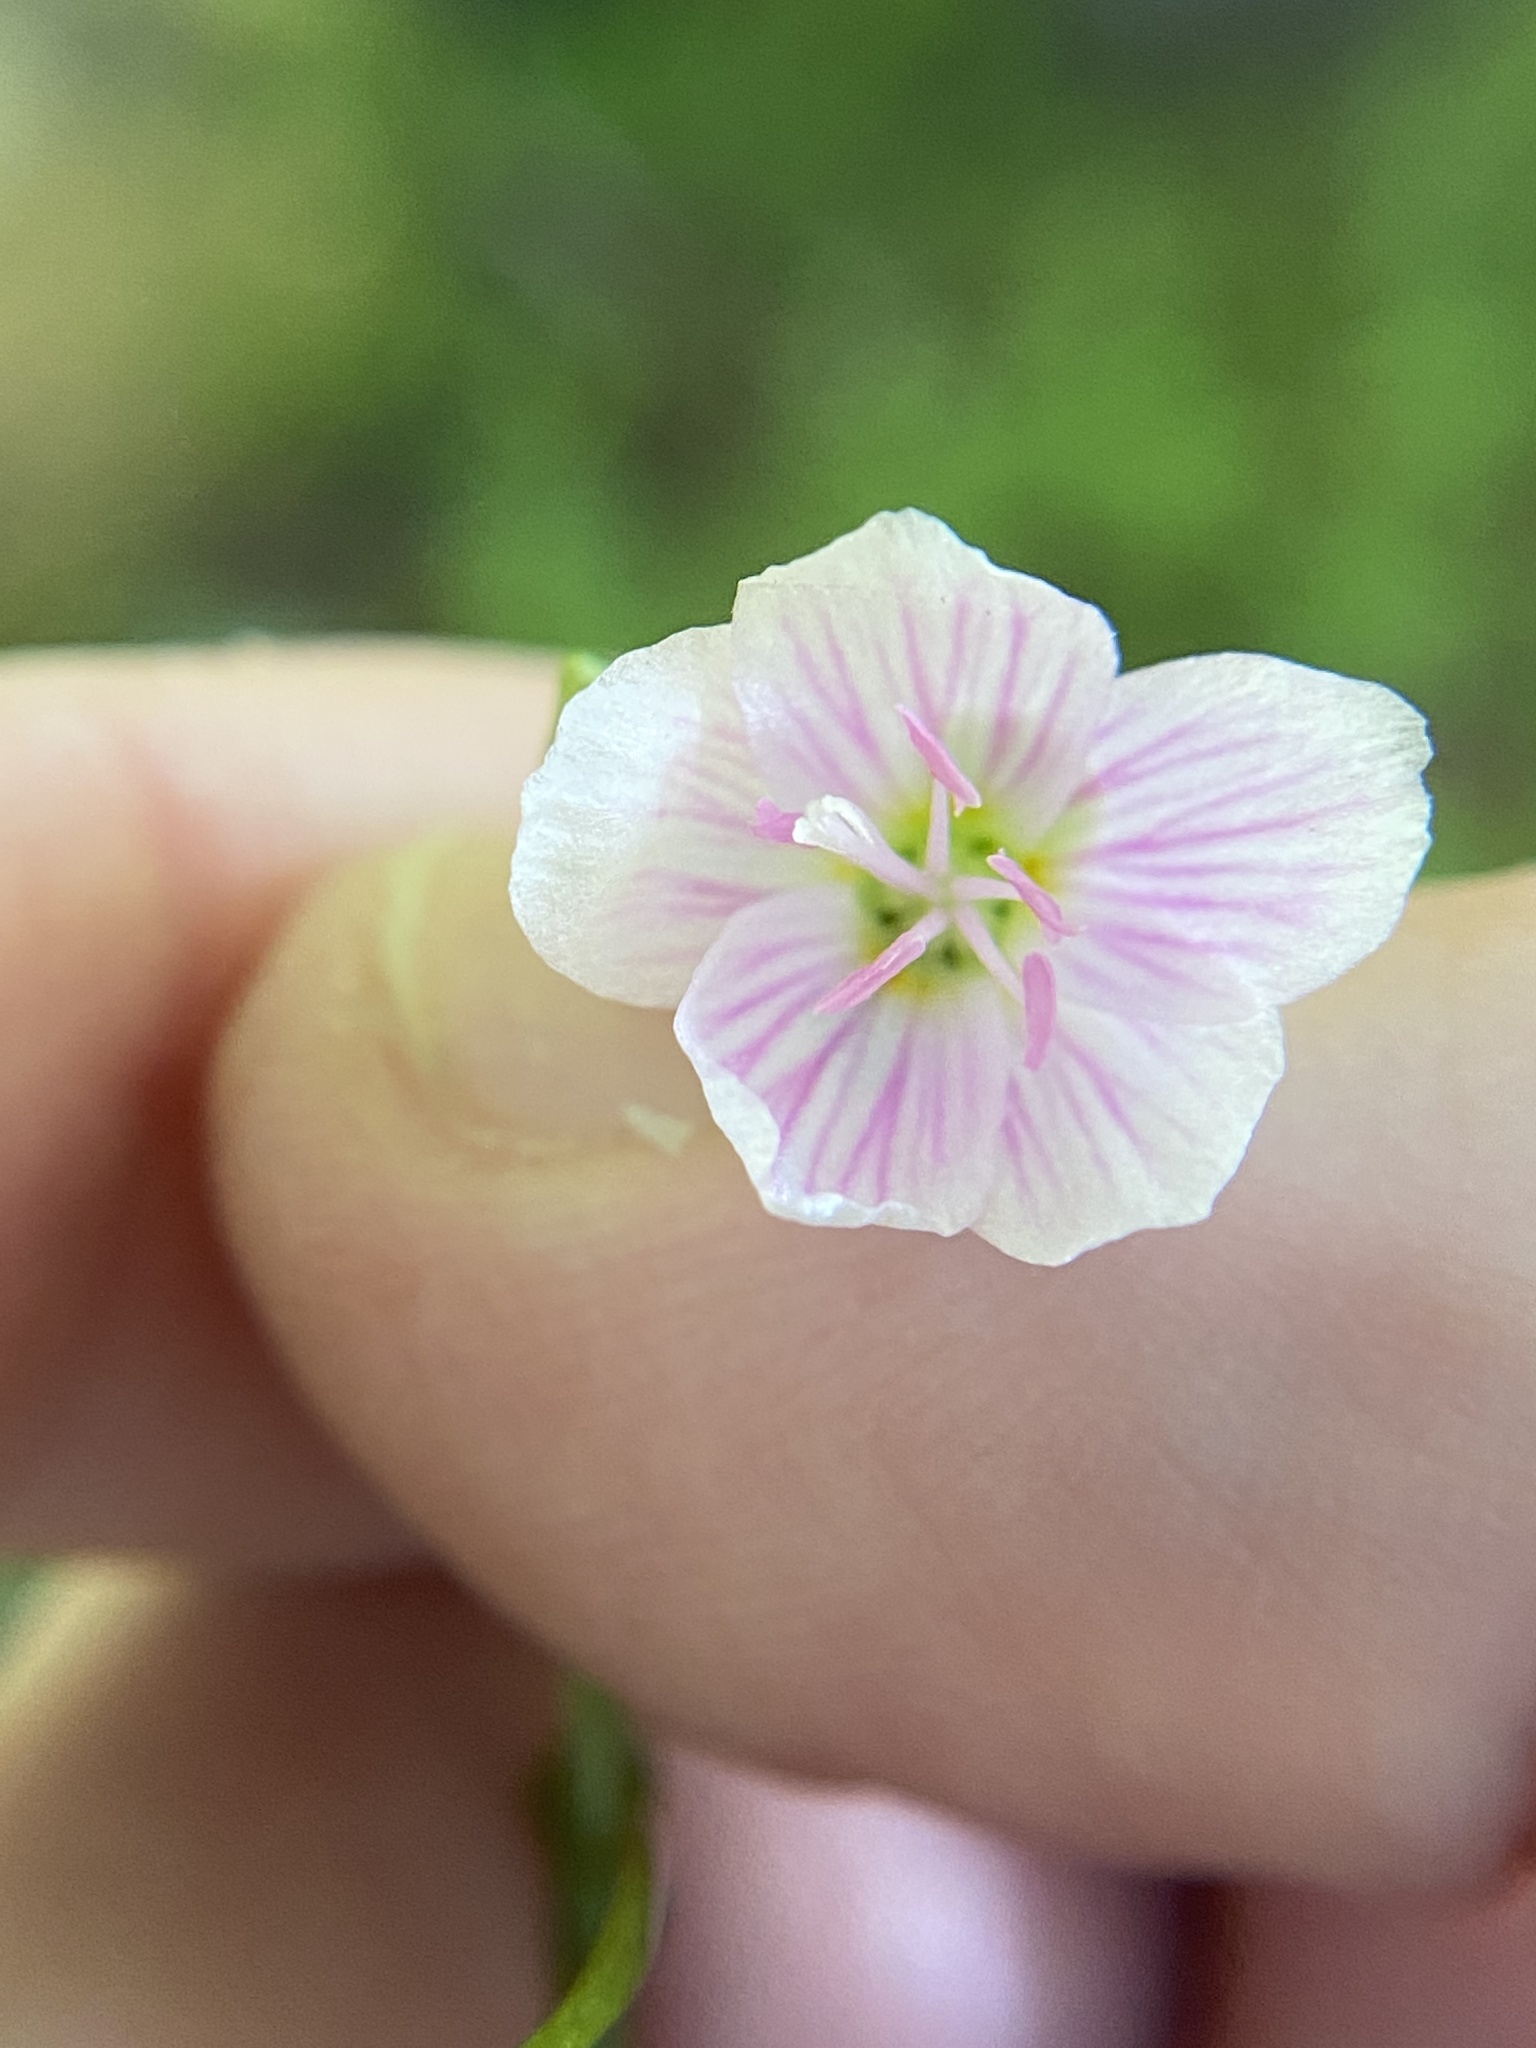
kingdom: Plantae
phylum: Tracheophyta
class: Magnoliopsida
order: Caryophyllales
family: Montiaceae
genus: Claytonia
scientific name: Claytonia virginica
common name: Virginia springbeauty
